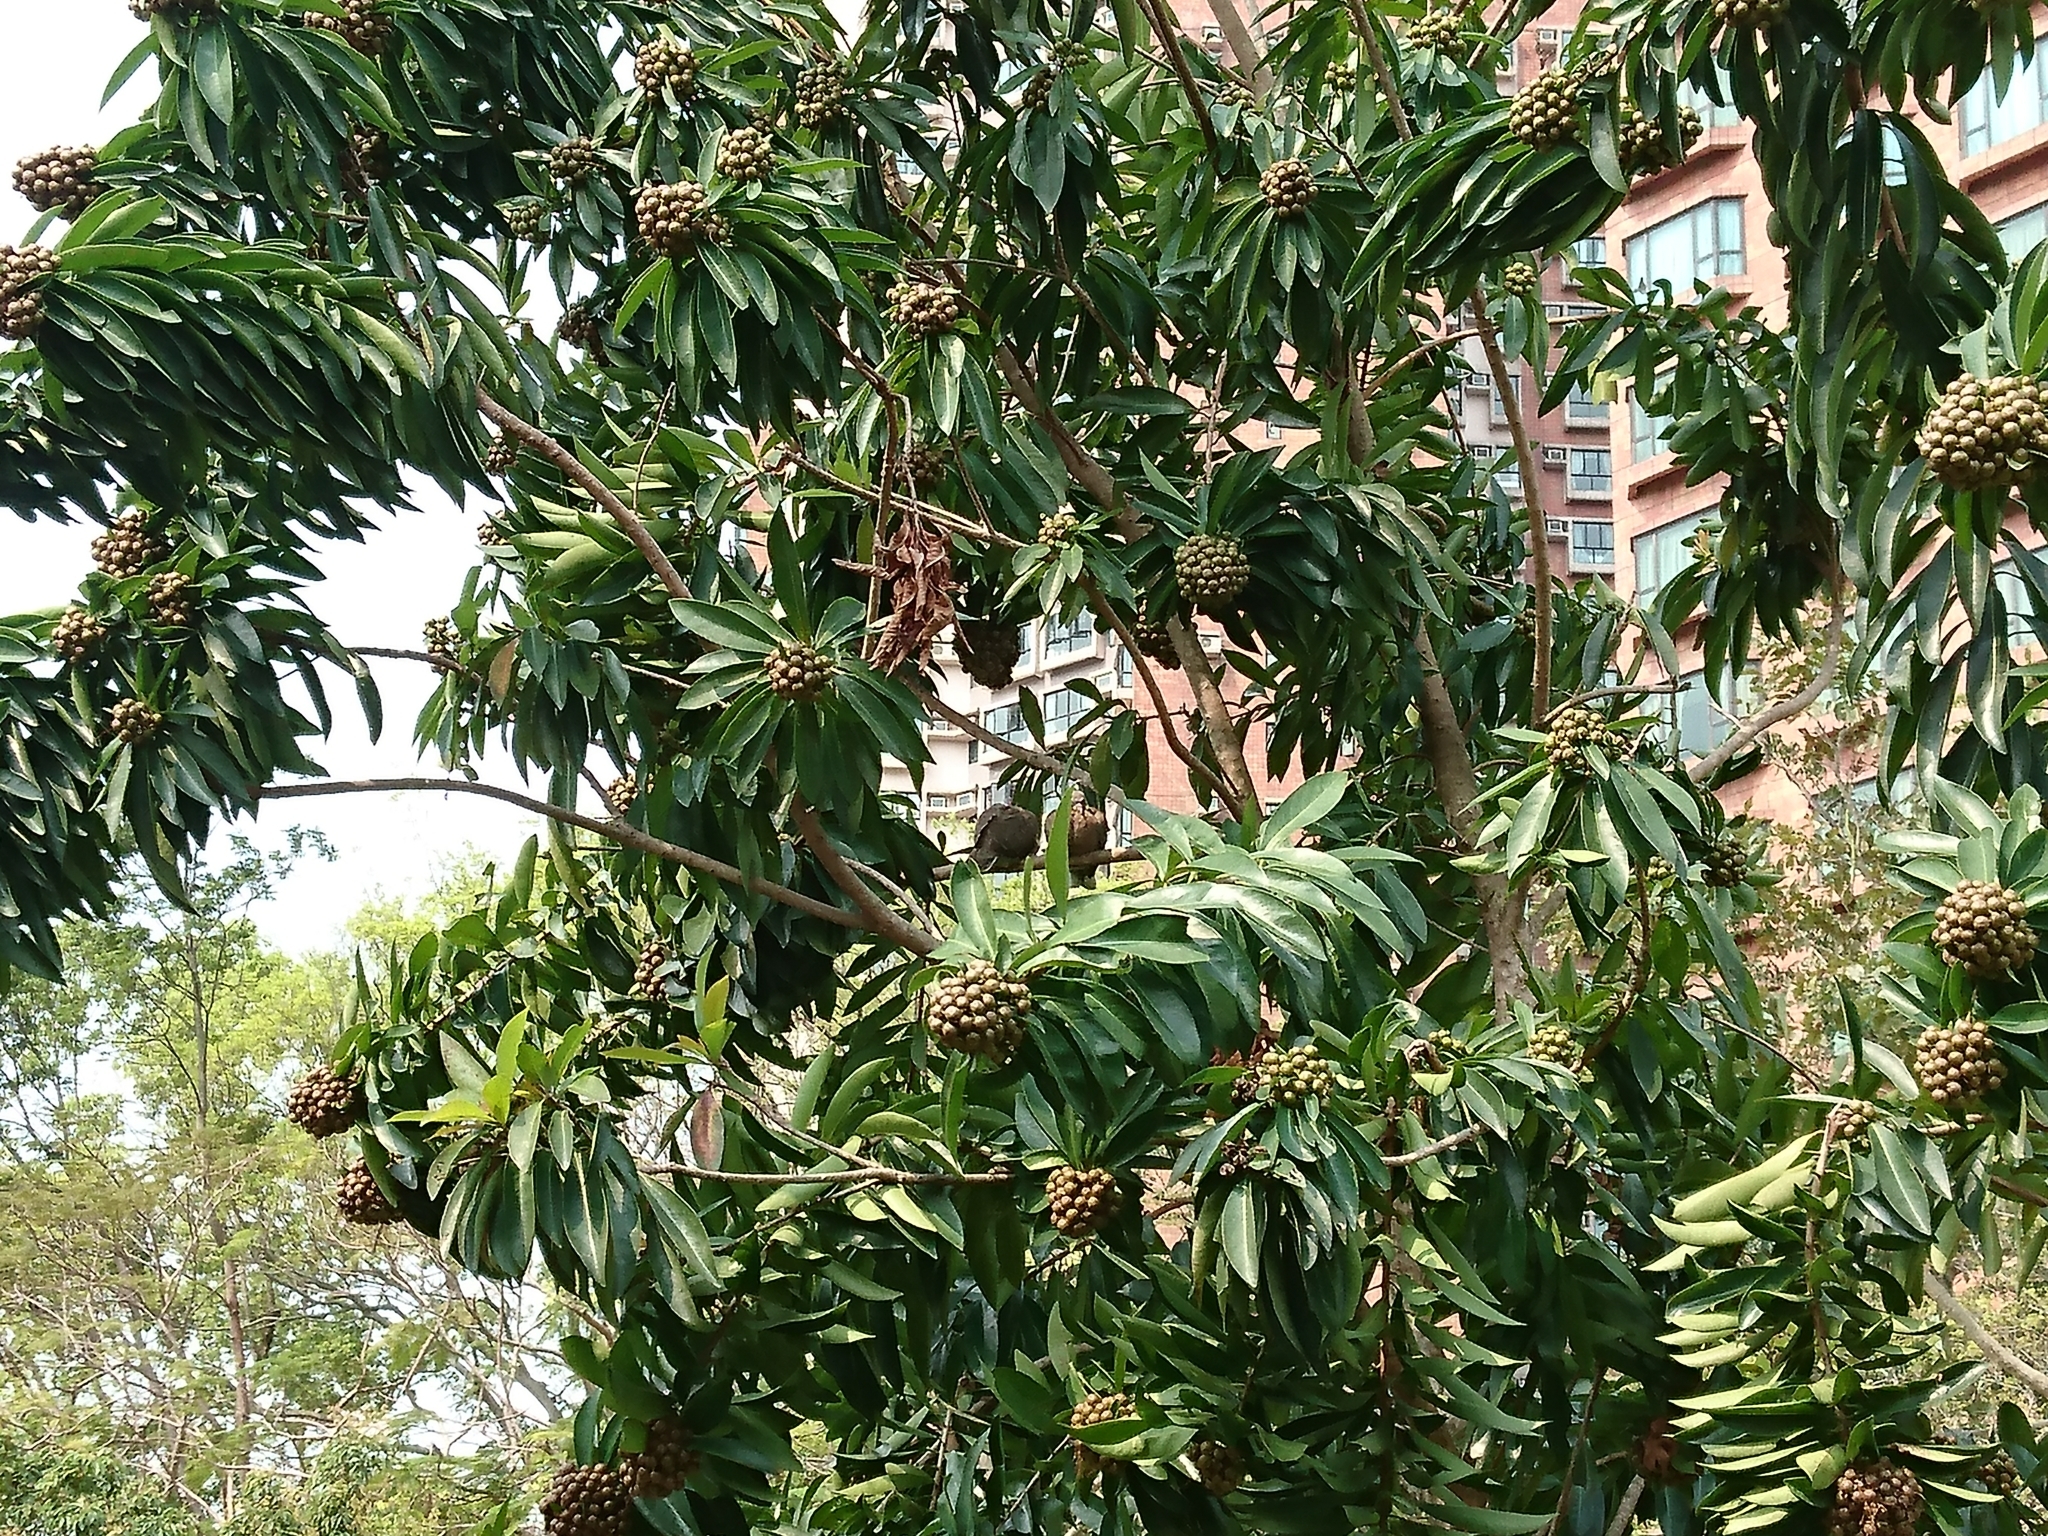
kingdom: Animalia
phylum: Chordata
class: Aves
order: Columbiformes
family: Columbidae
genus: Spilopelia
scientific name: Spilopelia chinensis
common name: Spotted dove
